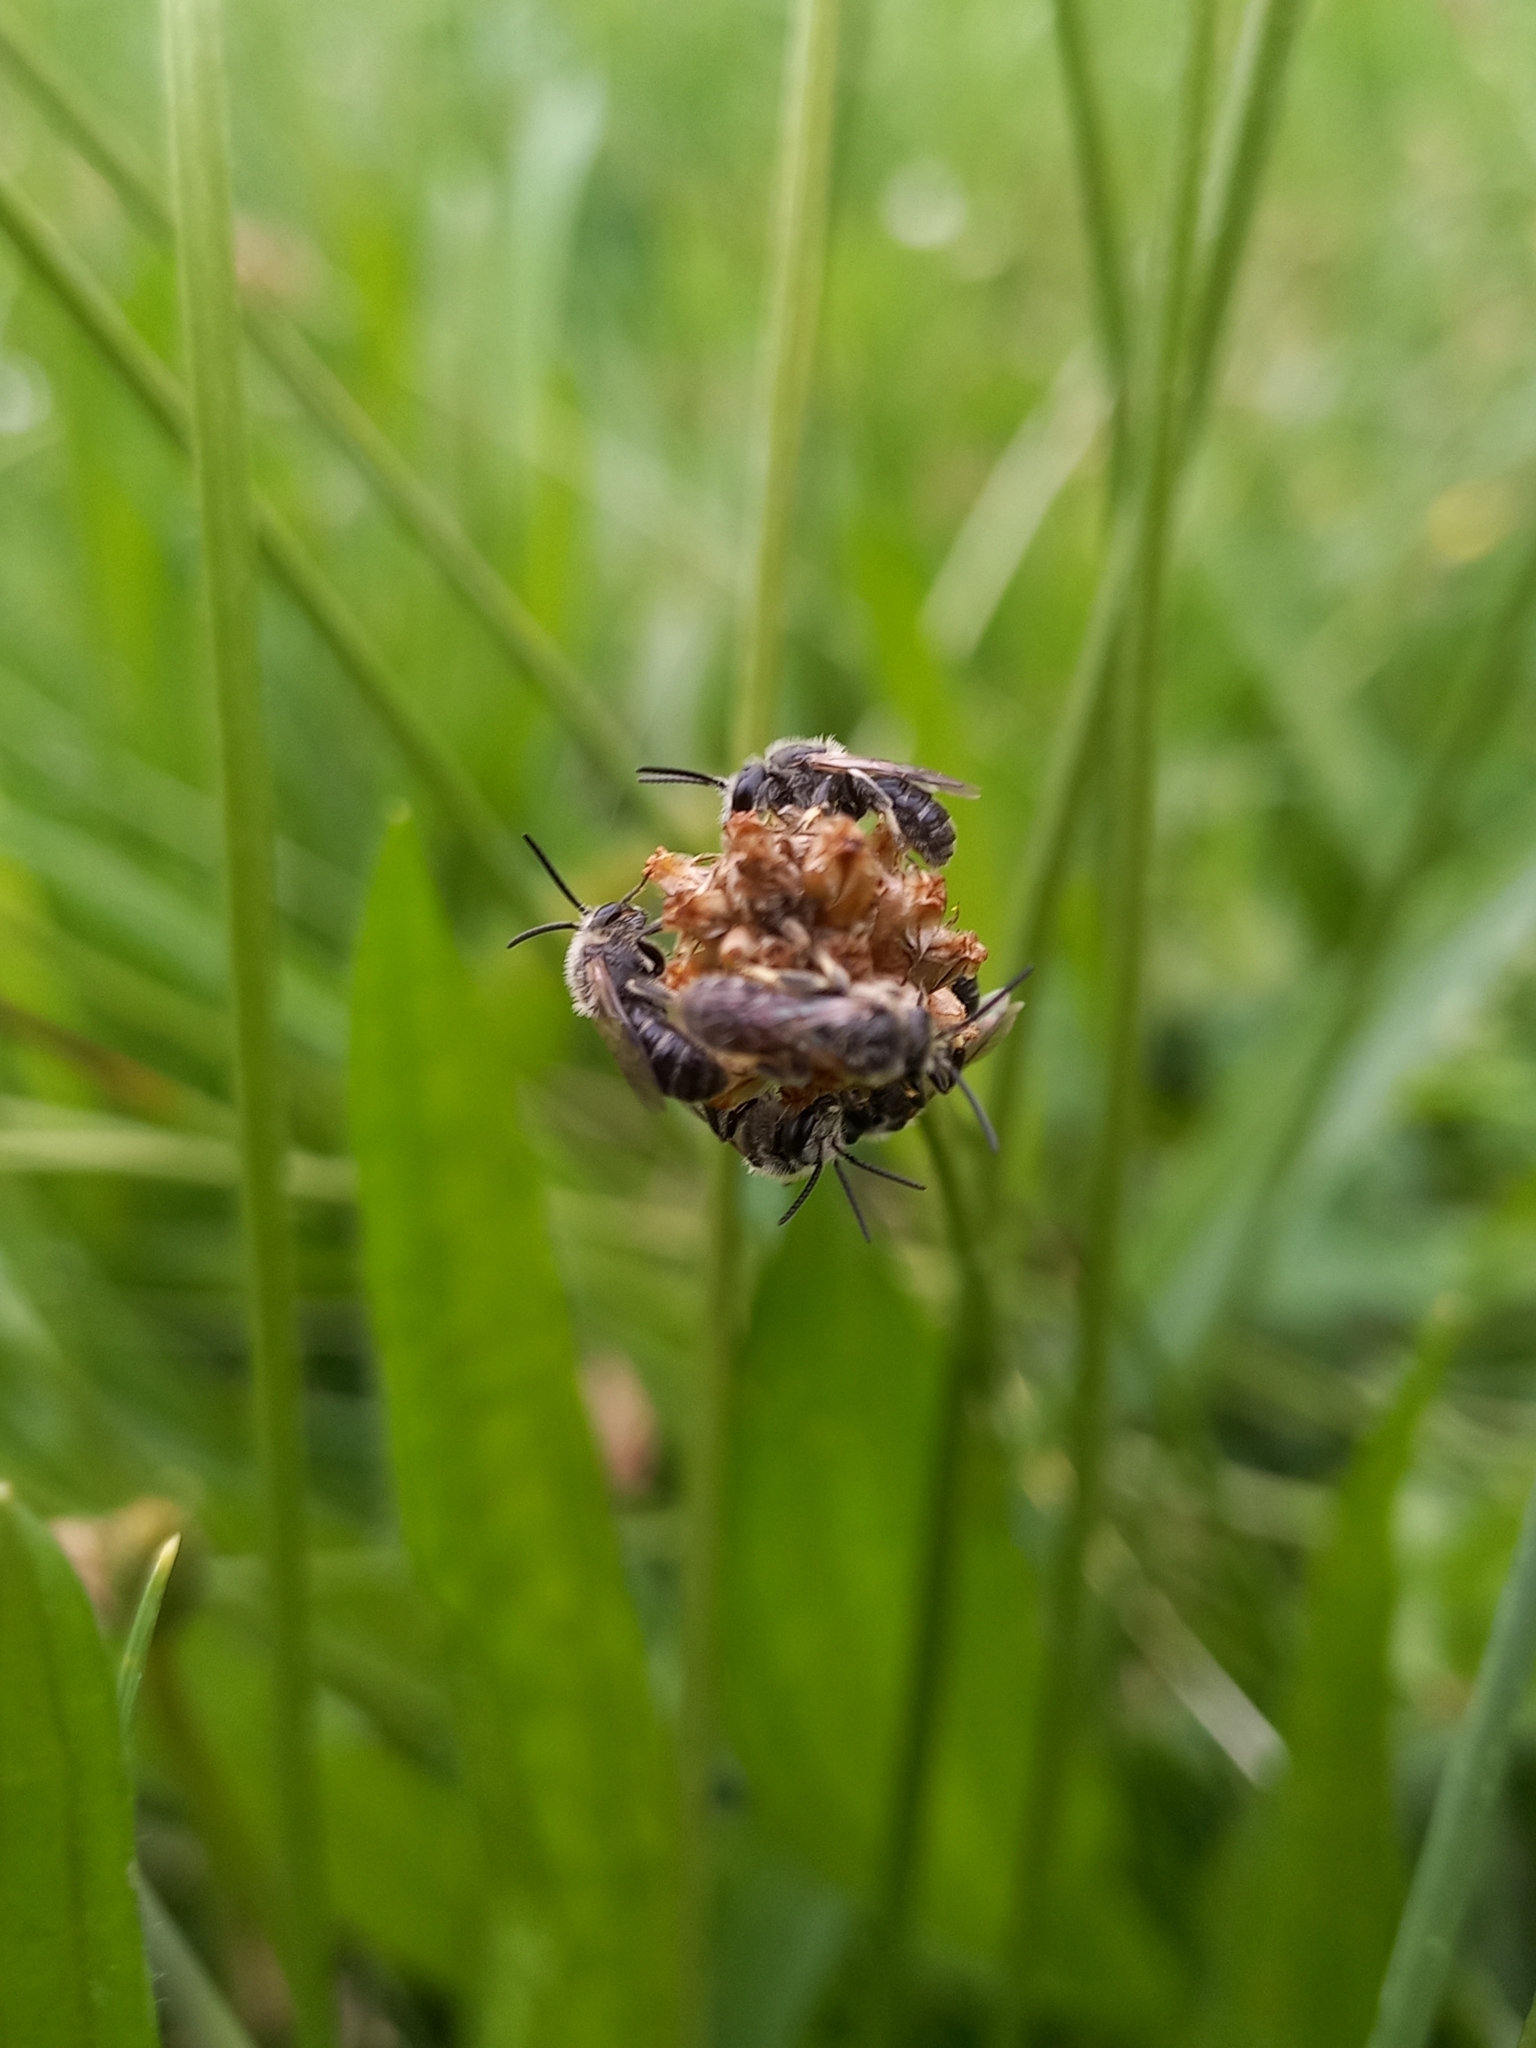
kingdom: Animalia
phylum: Arthropoda
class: Insecta
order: Hymenoptera
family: Halictidae
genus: Lasioglossum
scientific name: Lasioglossum leucozonium
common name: White-zoned furrow bee
